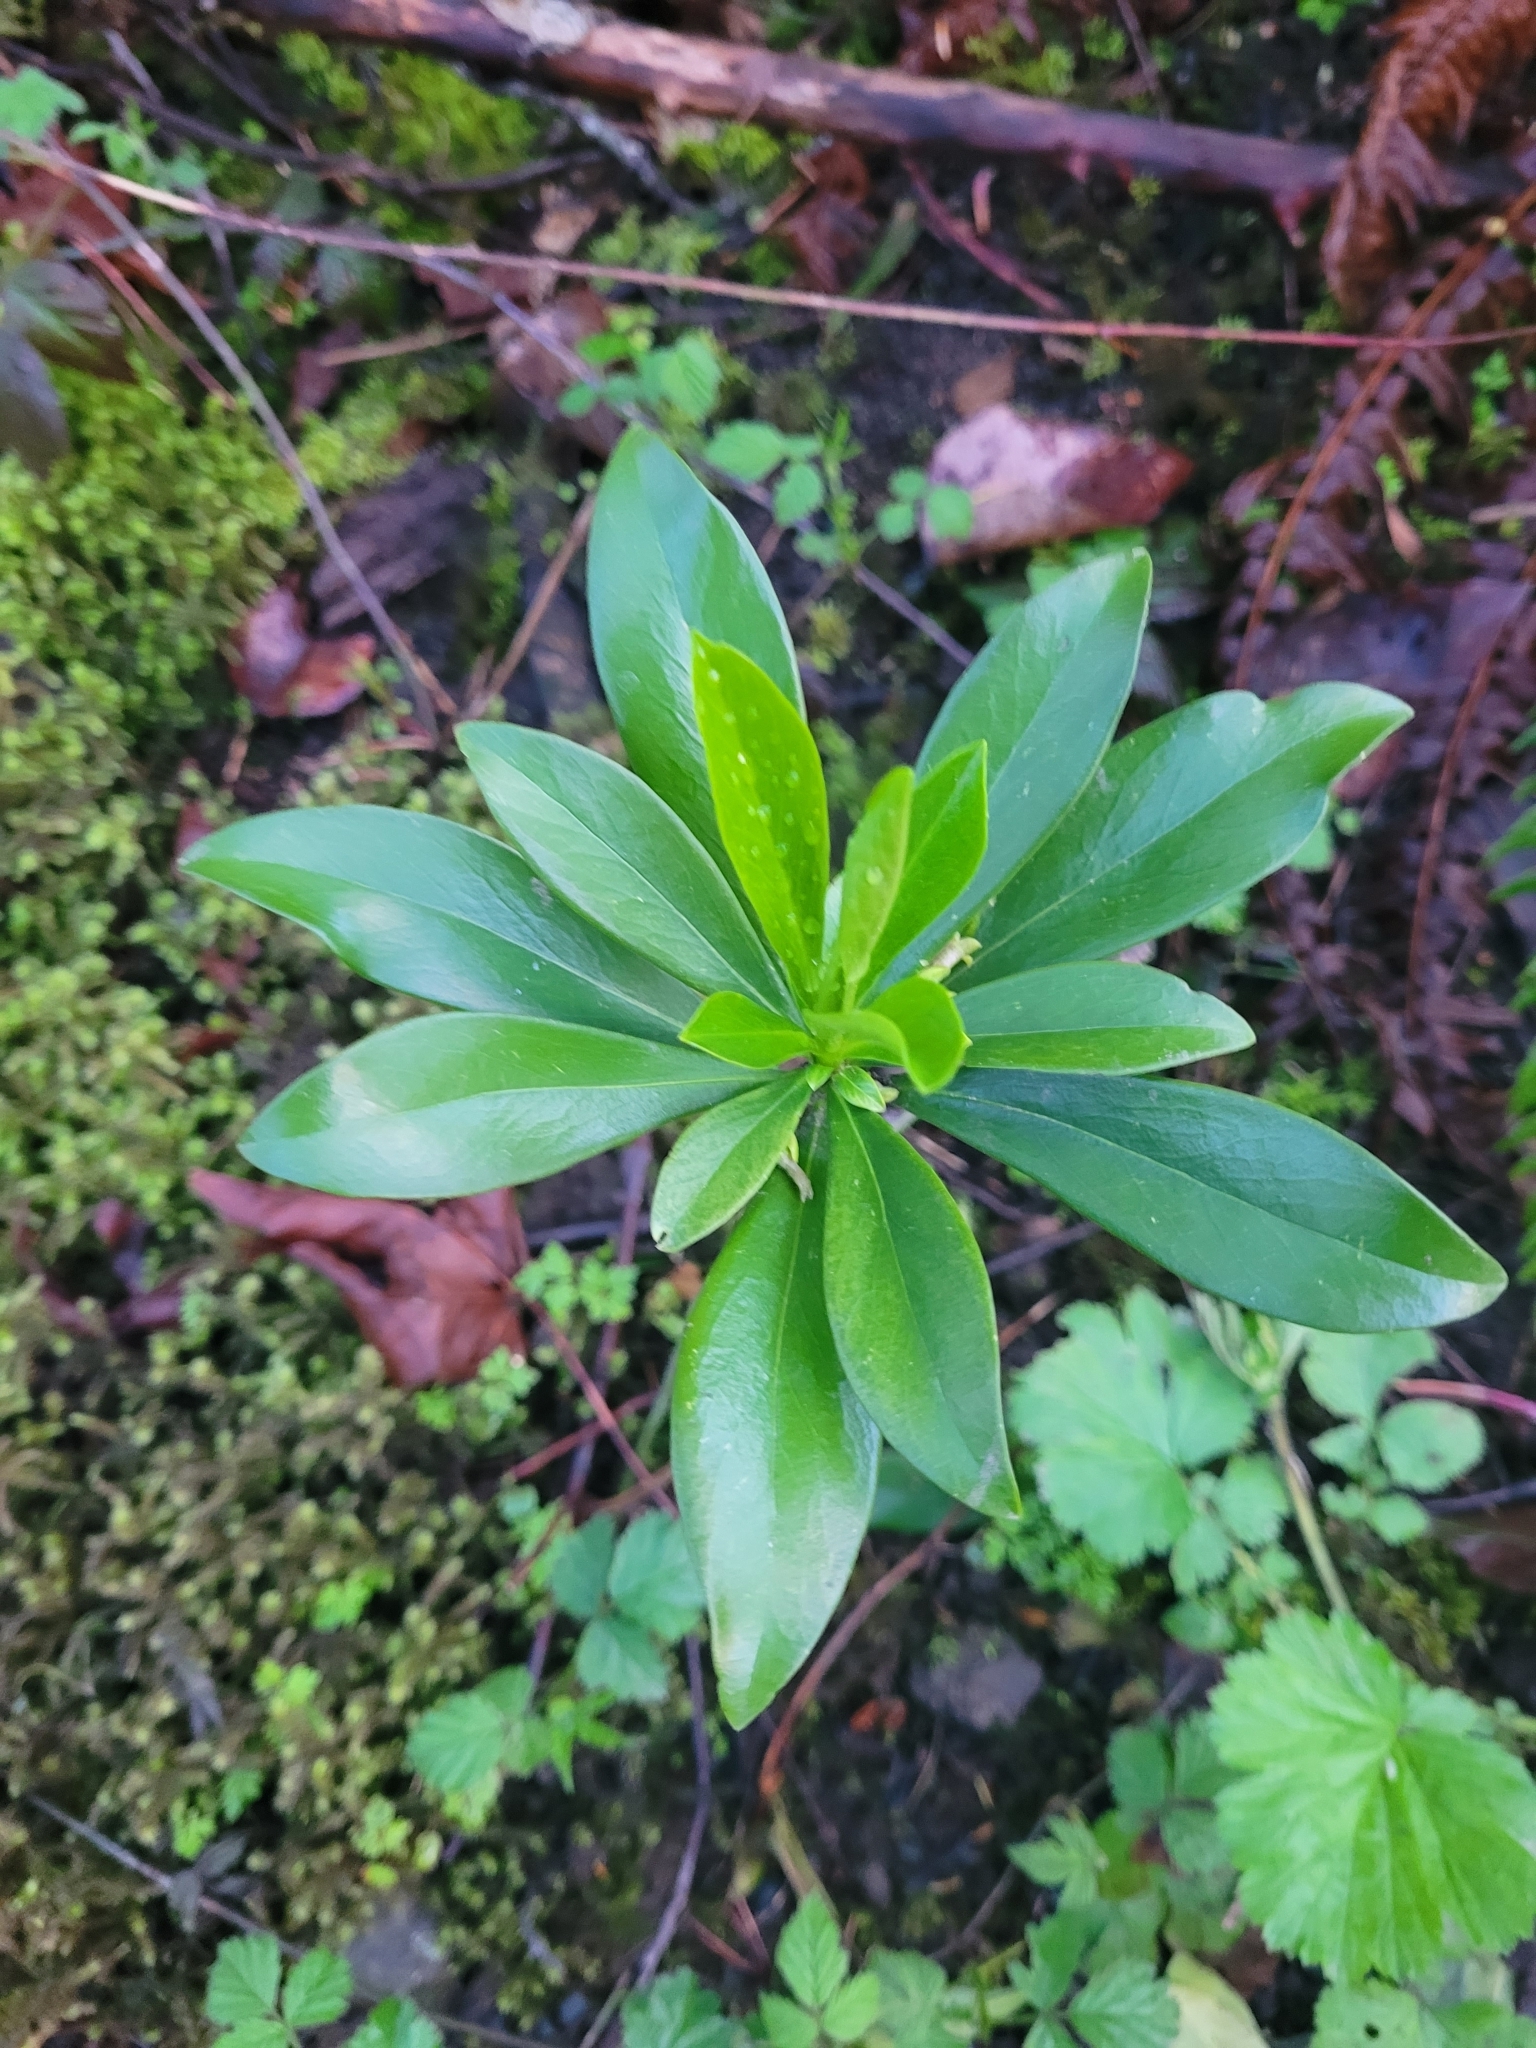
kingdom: Plantae
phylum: Tracheophyta
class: Magnoliopsida
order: Malvales
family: Thymelaeaceae
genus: Daphne
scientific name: Daphne laureola
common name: Spurge-laurel
